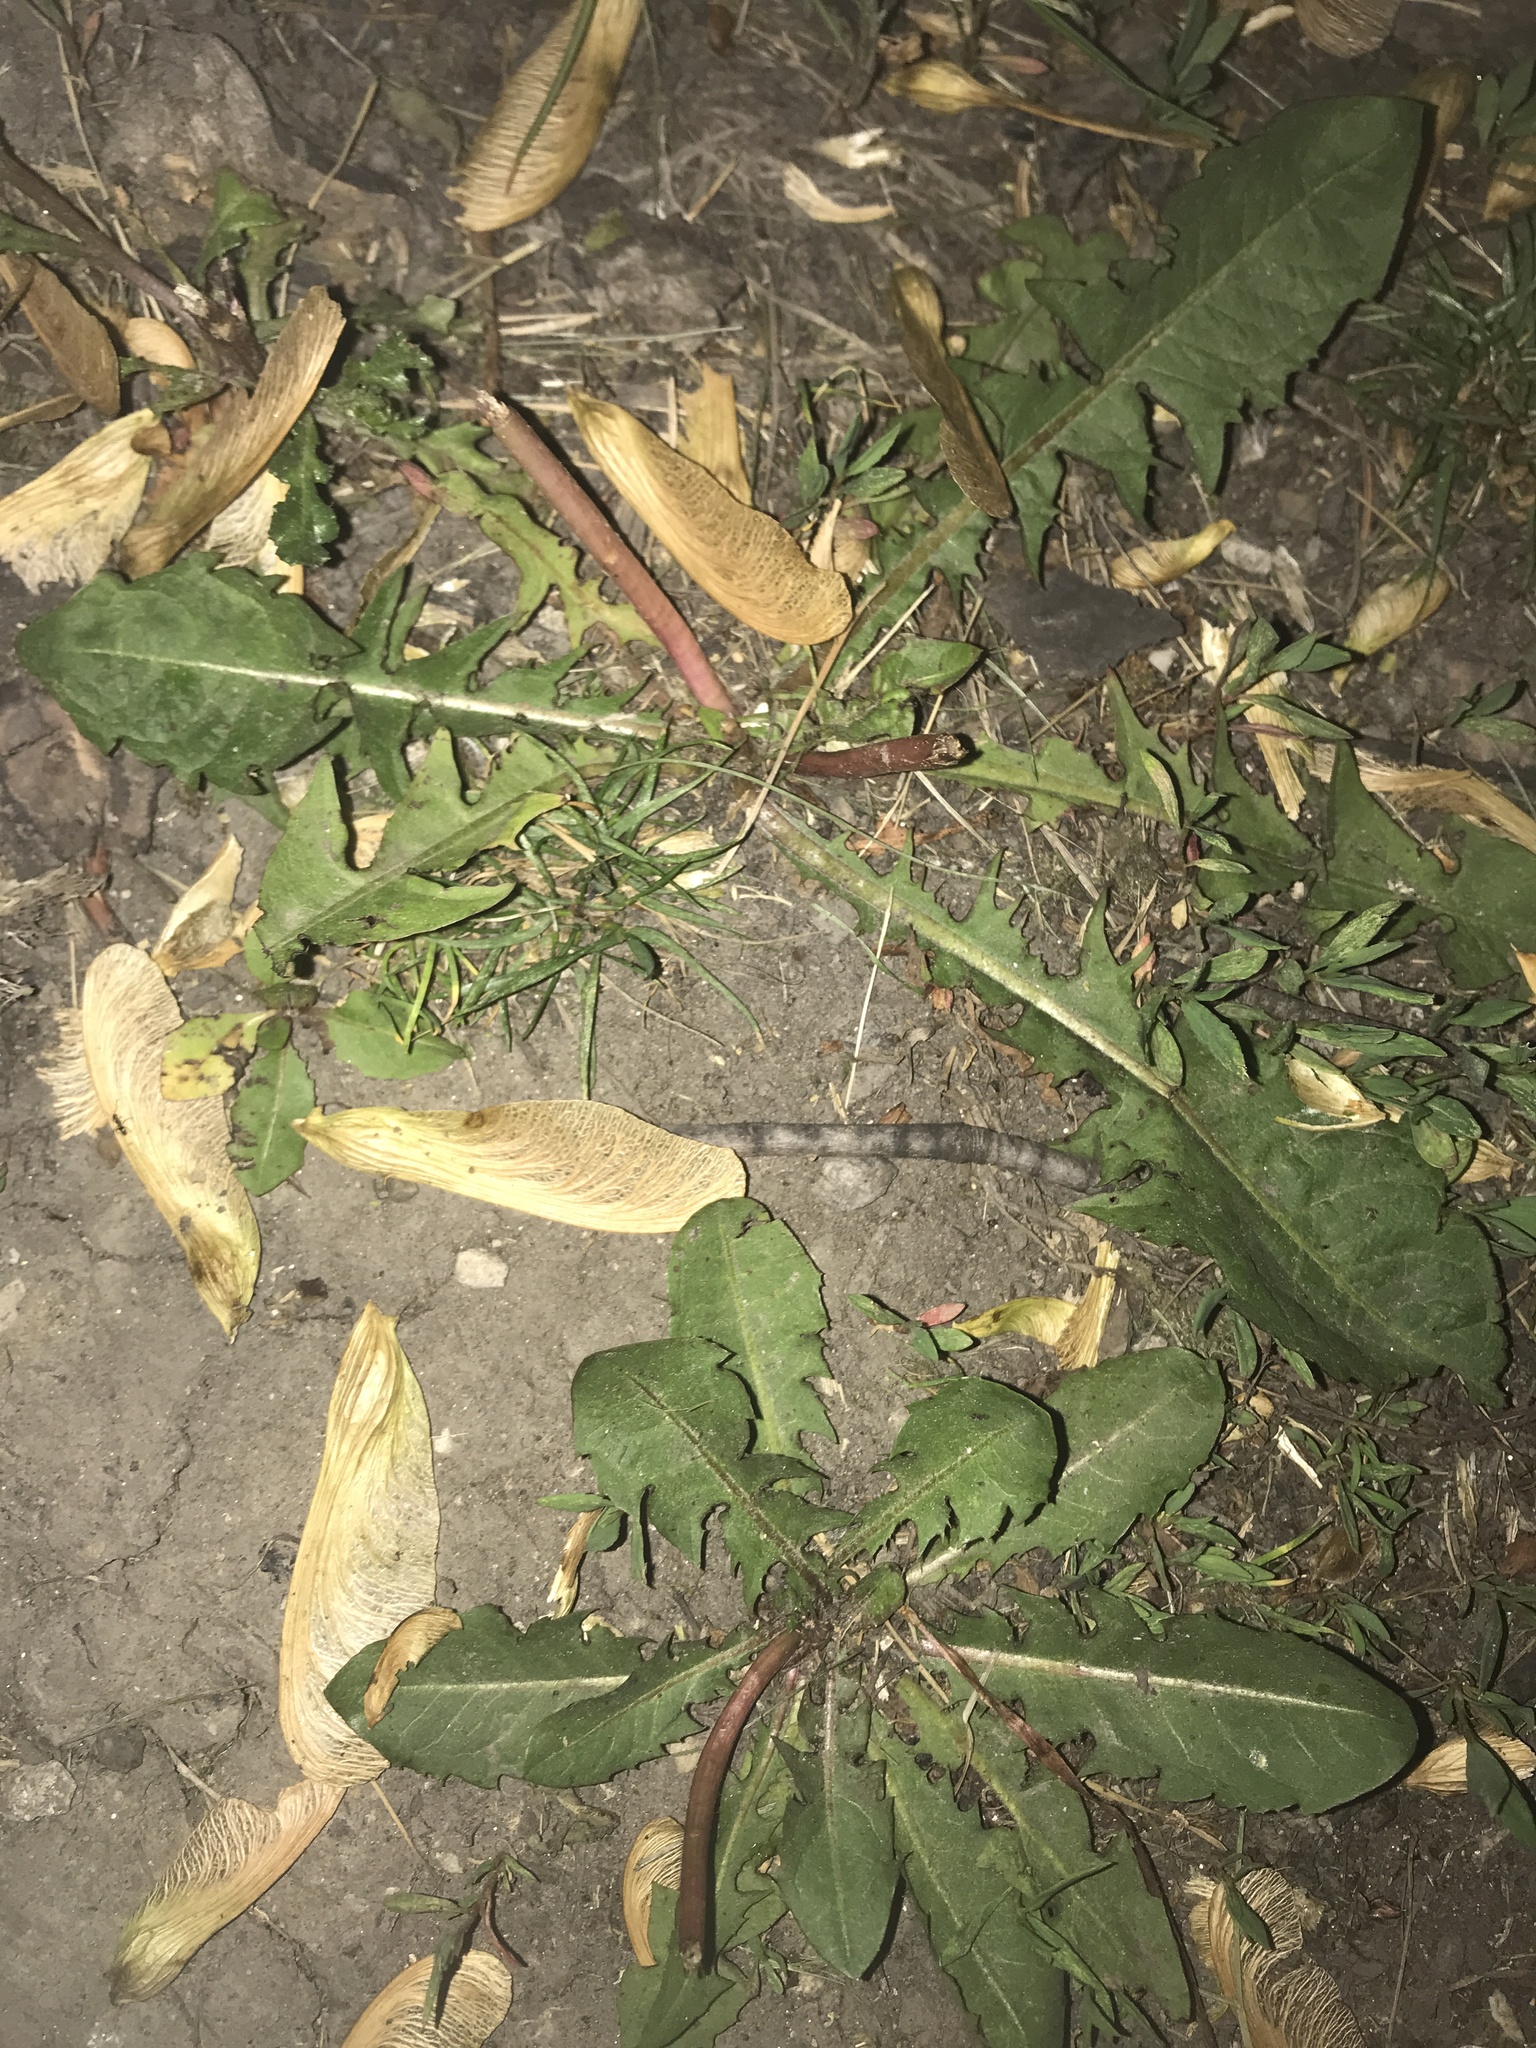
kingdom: Plantae
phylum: Tracheophyta
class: Magnoliopsida
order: Asterales
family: Asteraceae
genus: Taraxacum
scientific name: Taraxacum officinale
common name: Common dandelion
